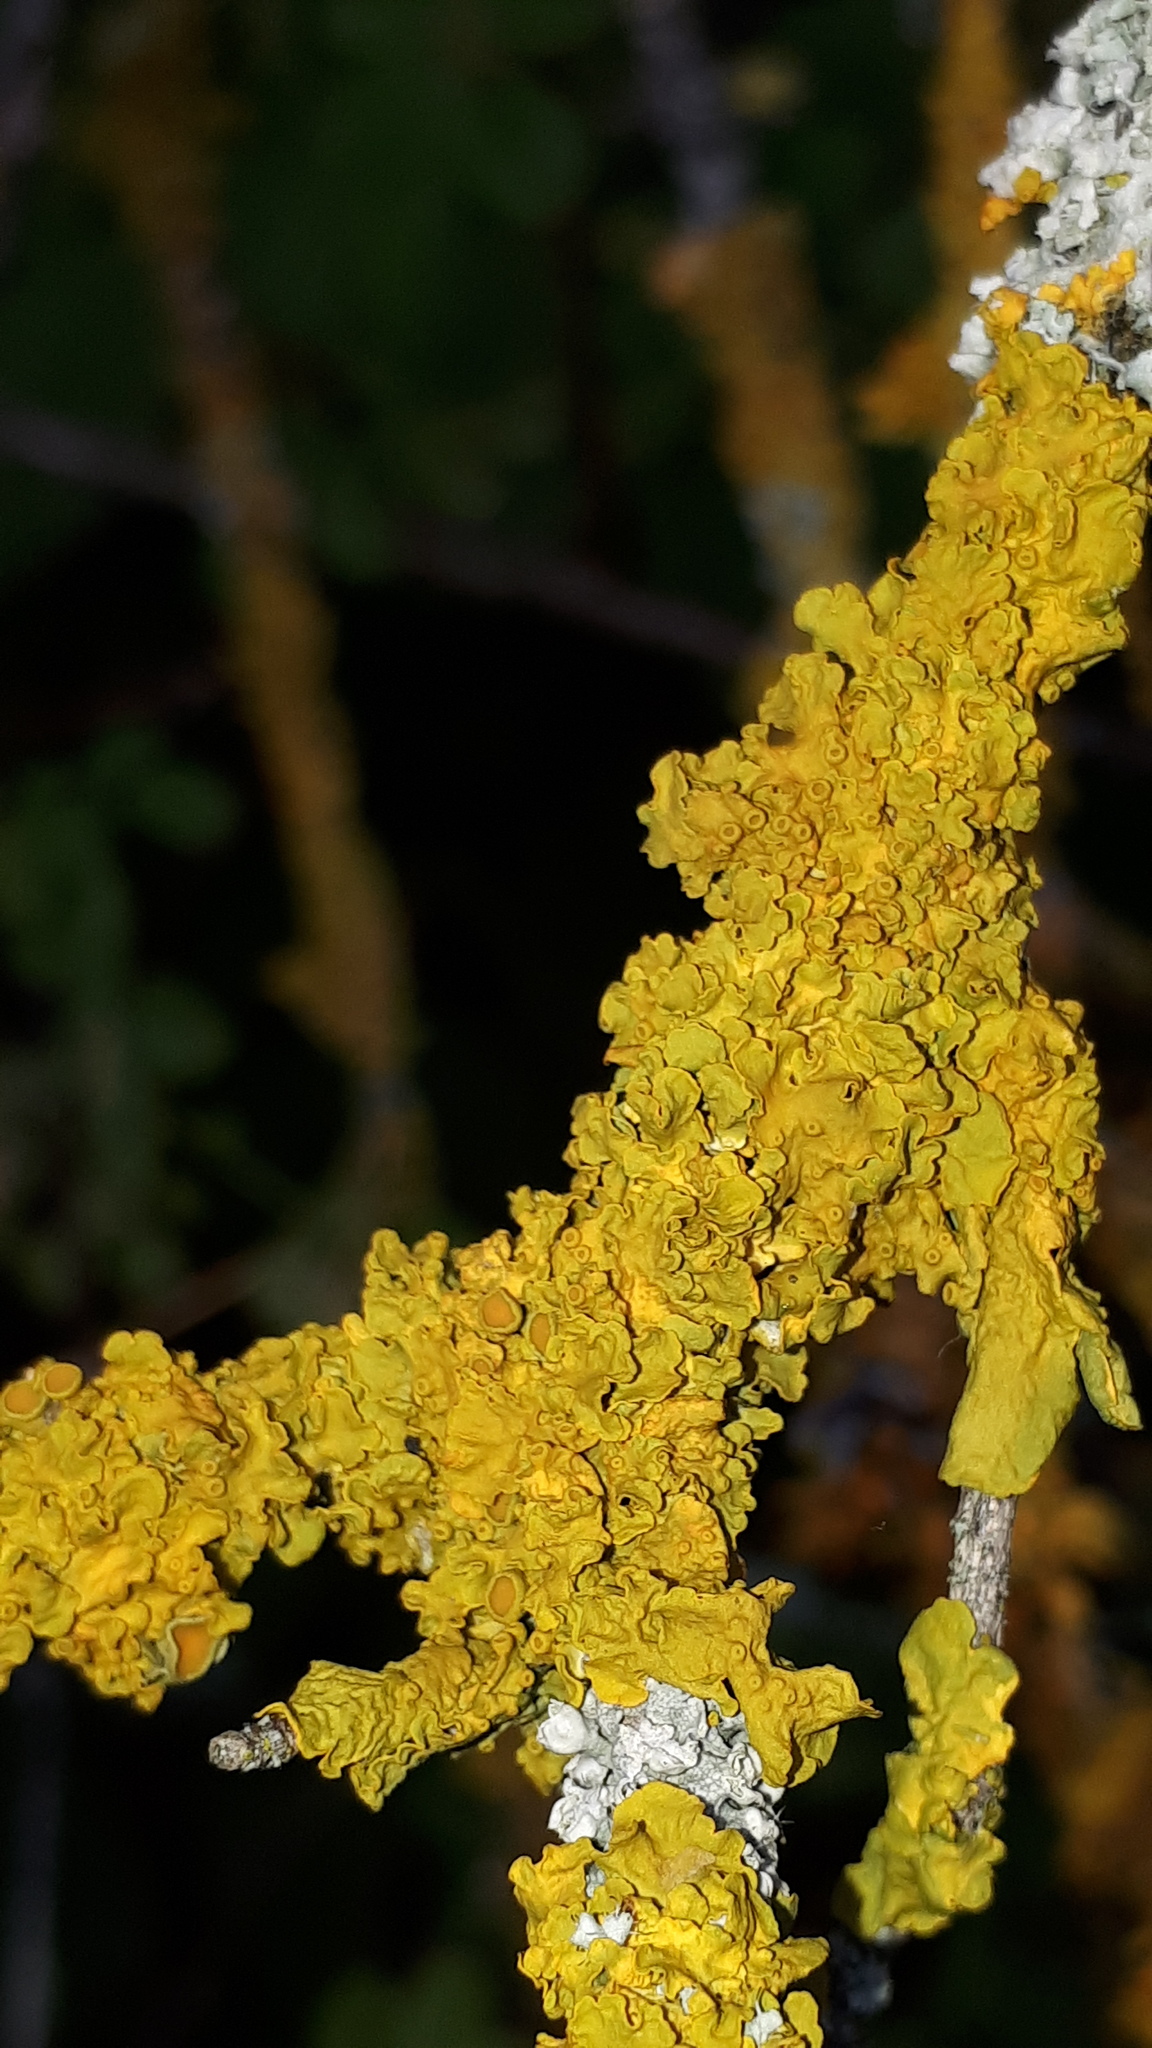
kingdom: Fungi
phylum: Ascomycota
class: Lecanoromycetes
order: Teloschistales
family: Teloschistaceae
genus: Xanthoria
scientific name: Xanthoria parietina
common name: Common orange lichen
